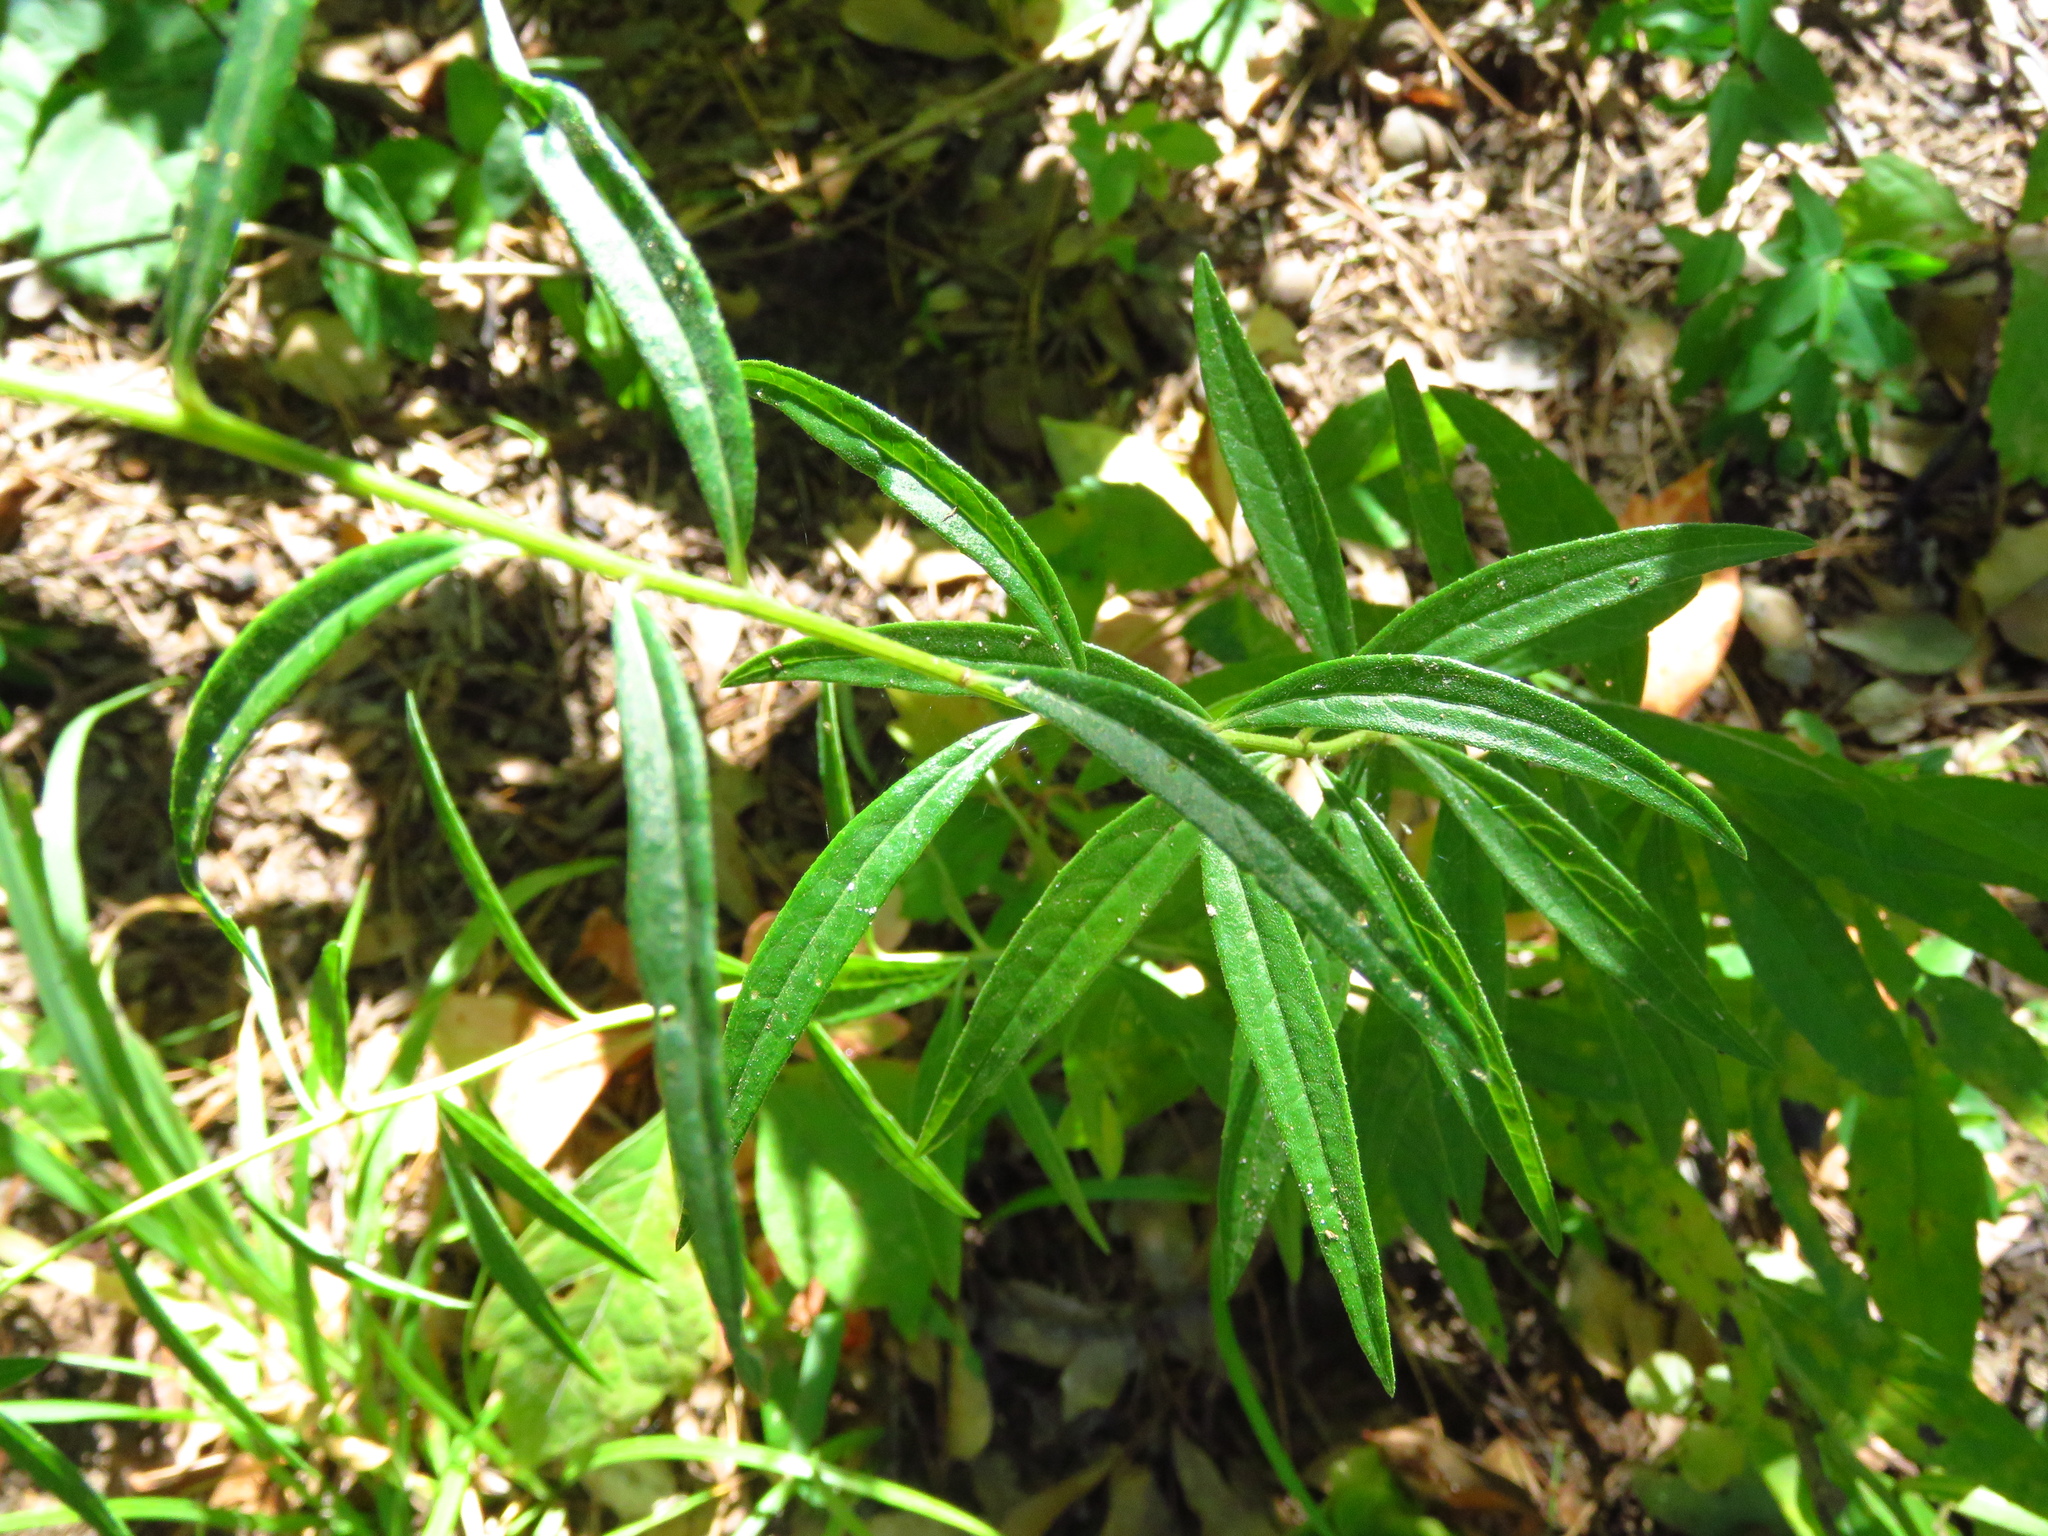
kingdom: Plantae
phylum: Tracheophyta
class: Magnoliopsida
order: Asterales
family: Asteraceae
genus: Vernonia
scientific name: Vernonia texana
